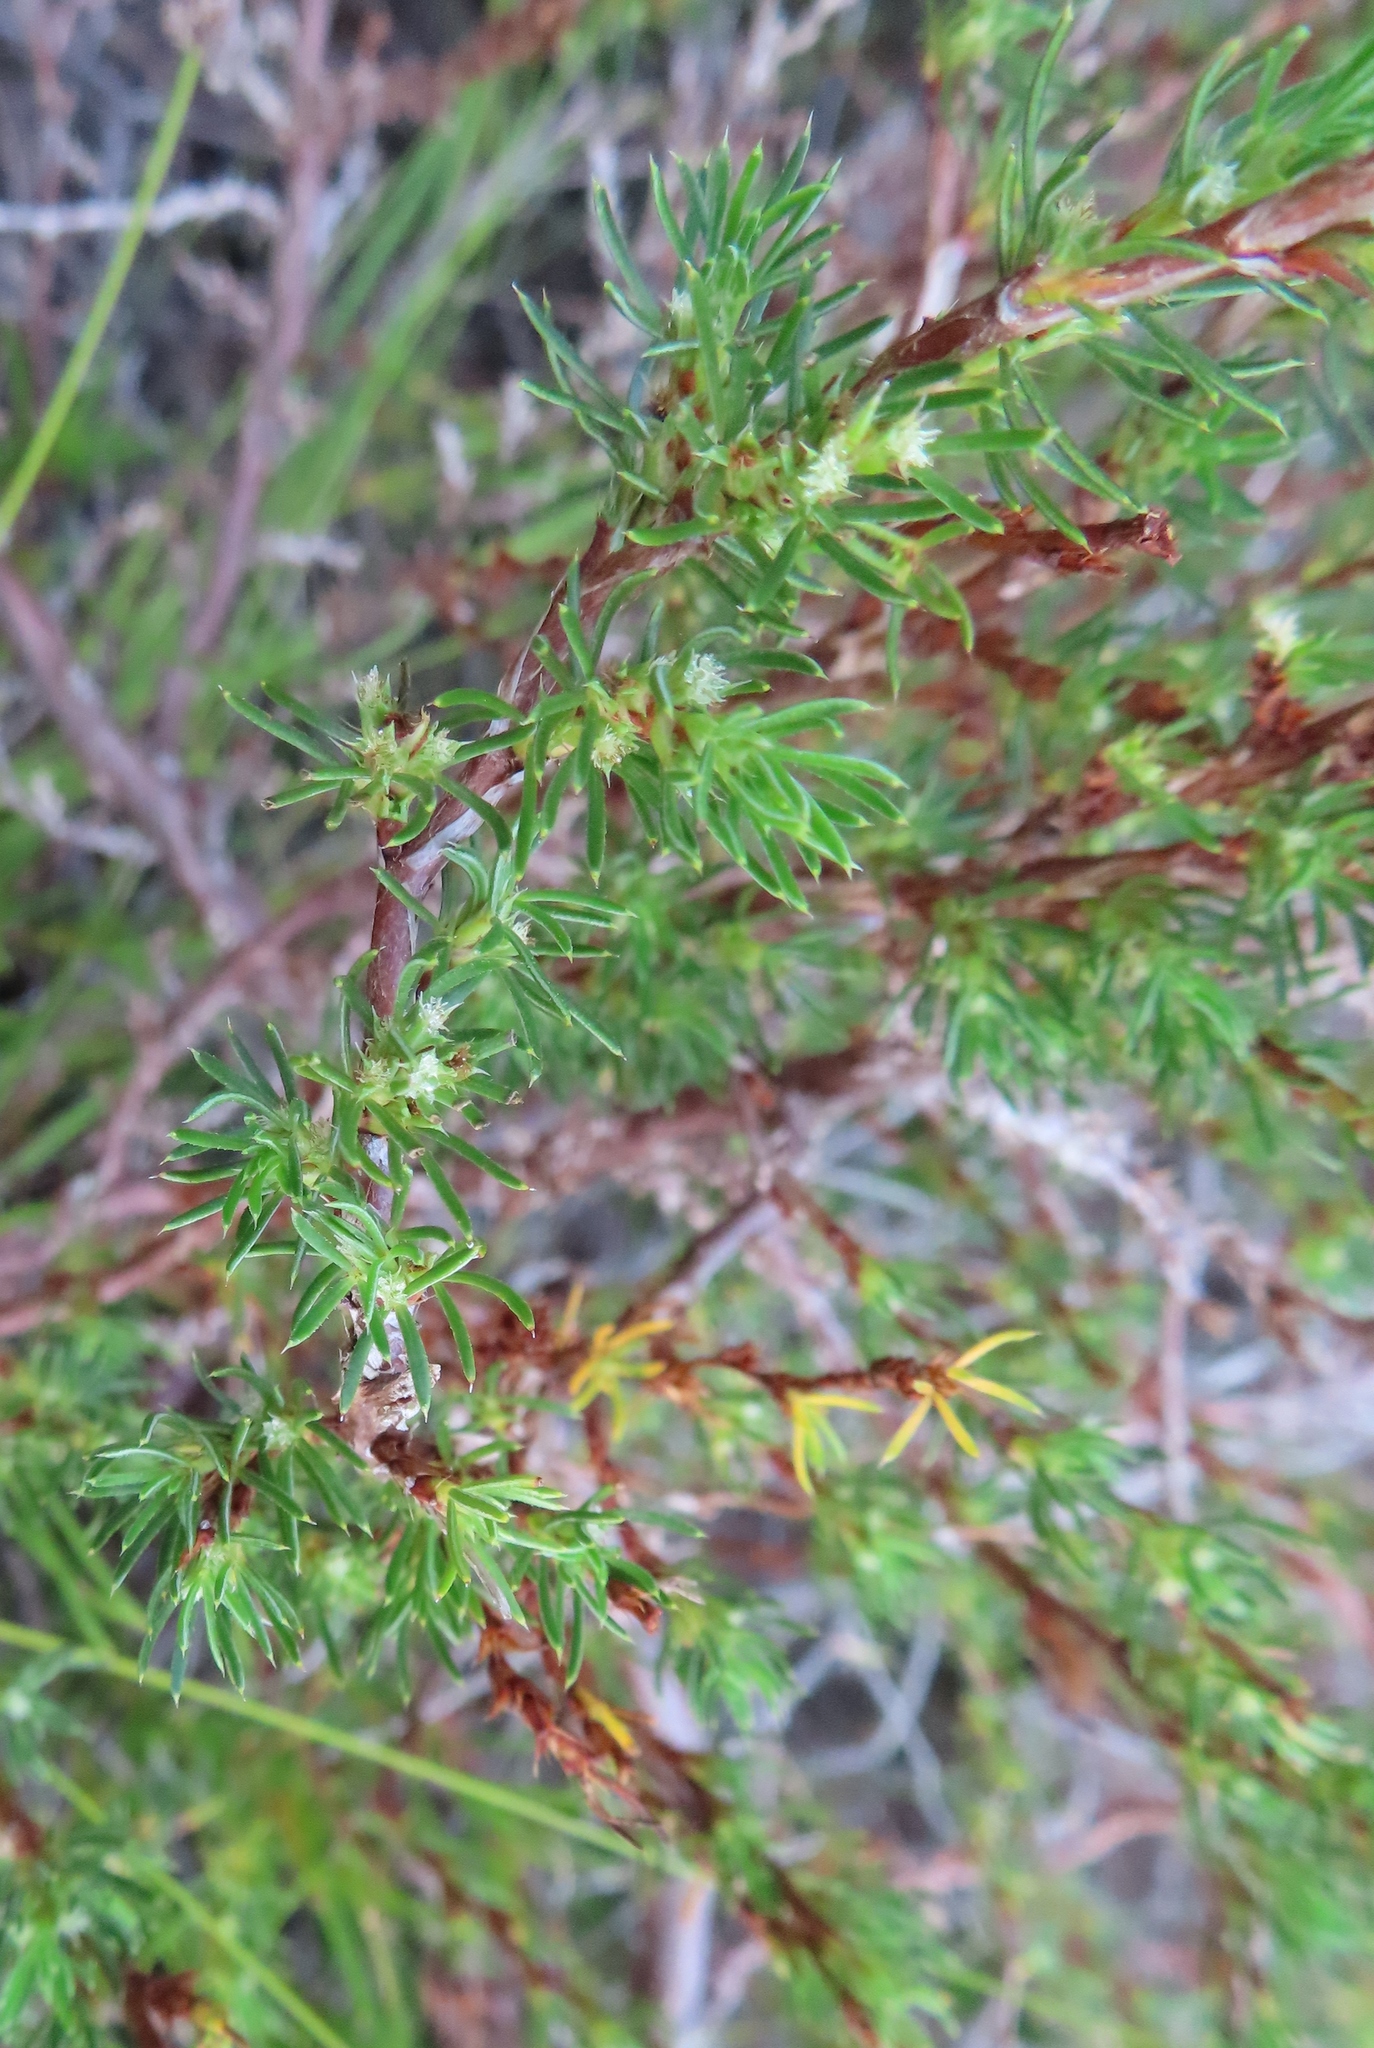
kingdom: Plantae
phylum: Tracheophyta
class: Magnoliopsida
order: Rosales
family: Rosaceae
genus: Cliffortia
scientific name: Cliffortia filifolia
